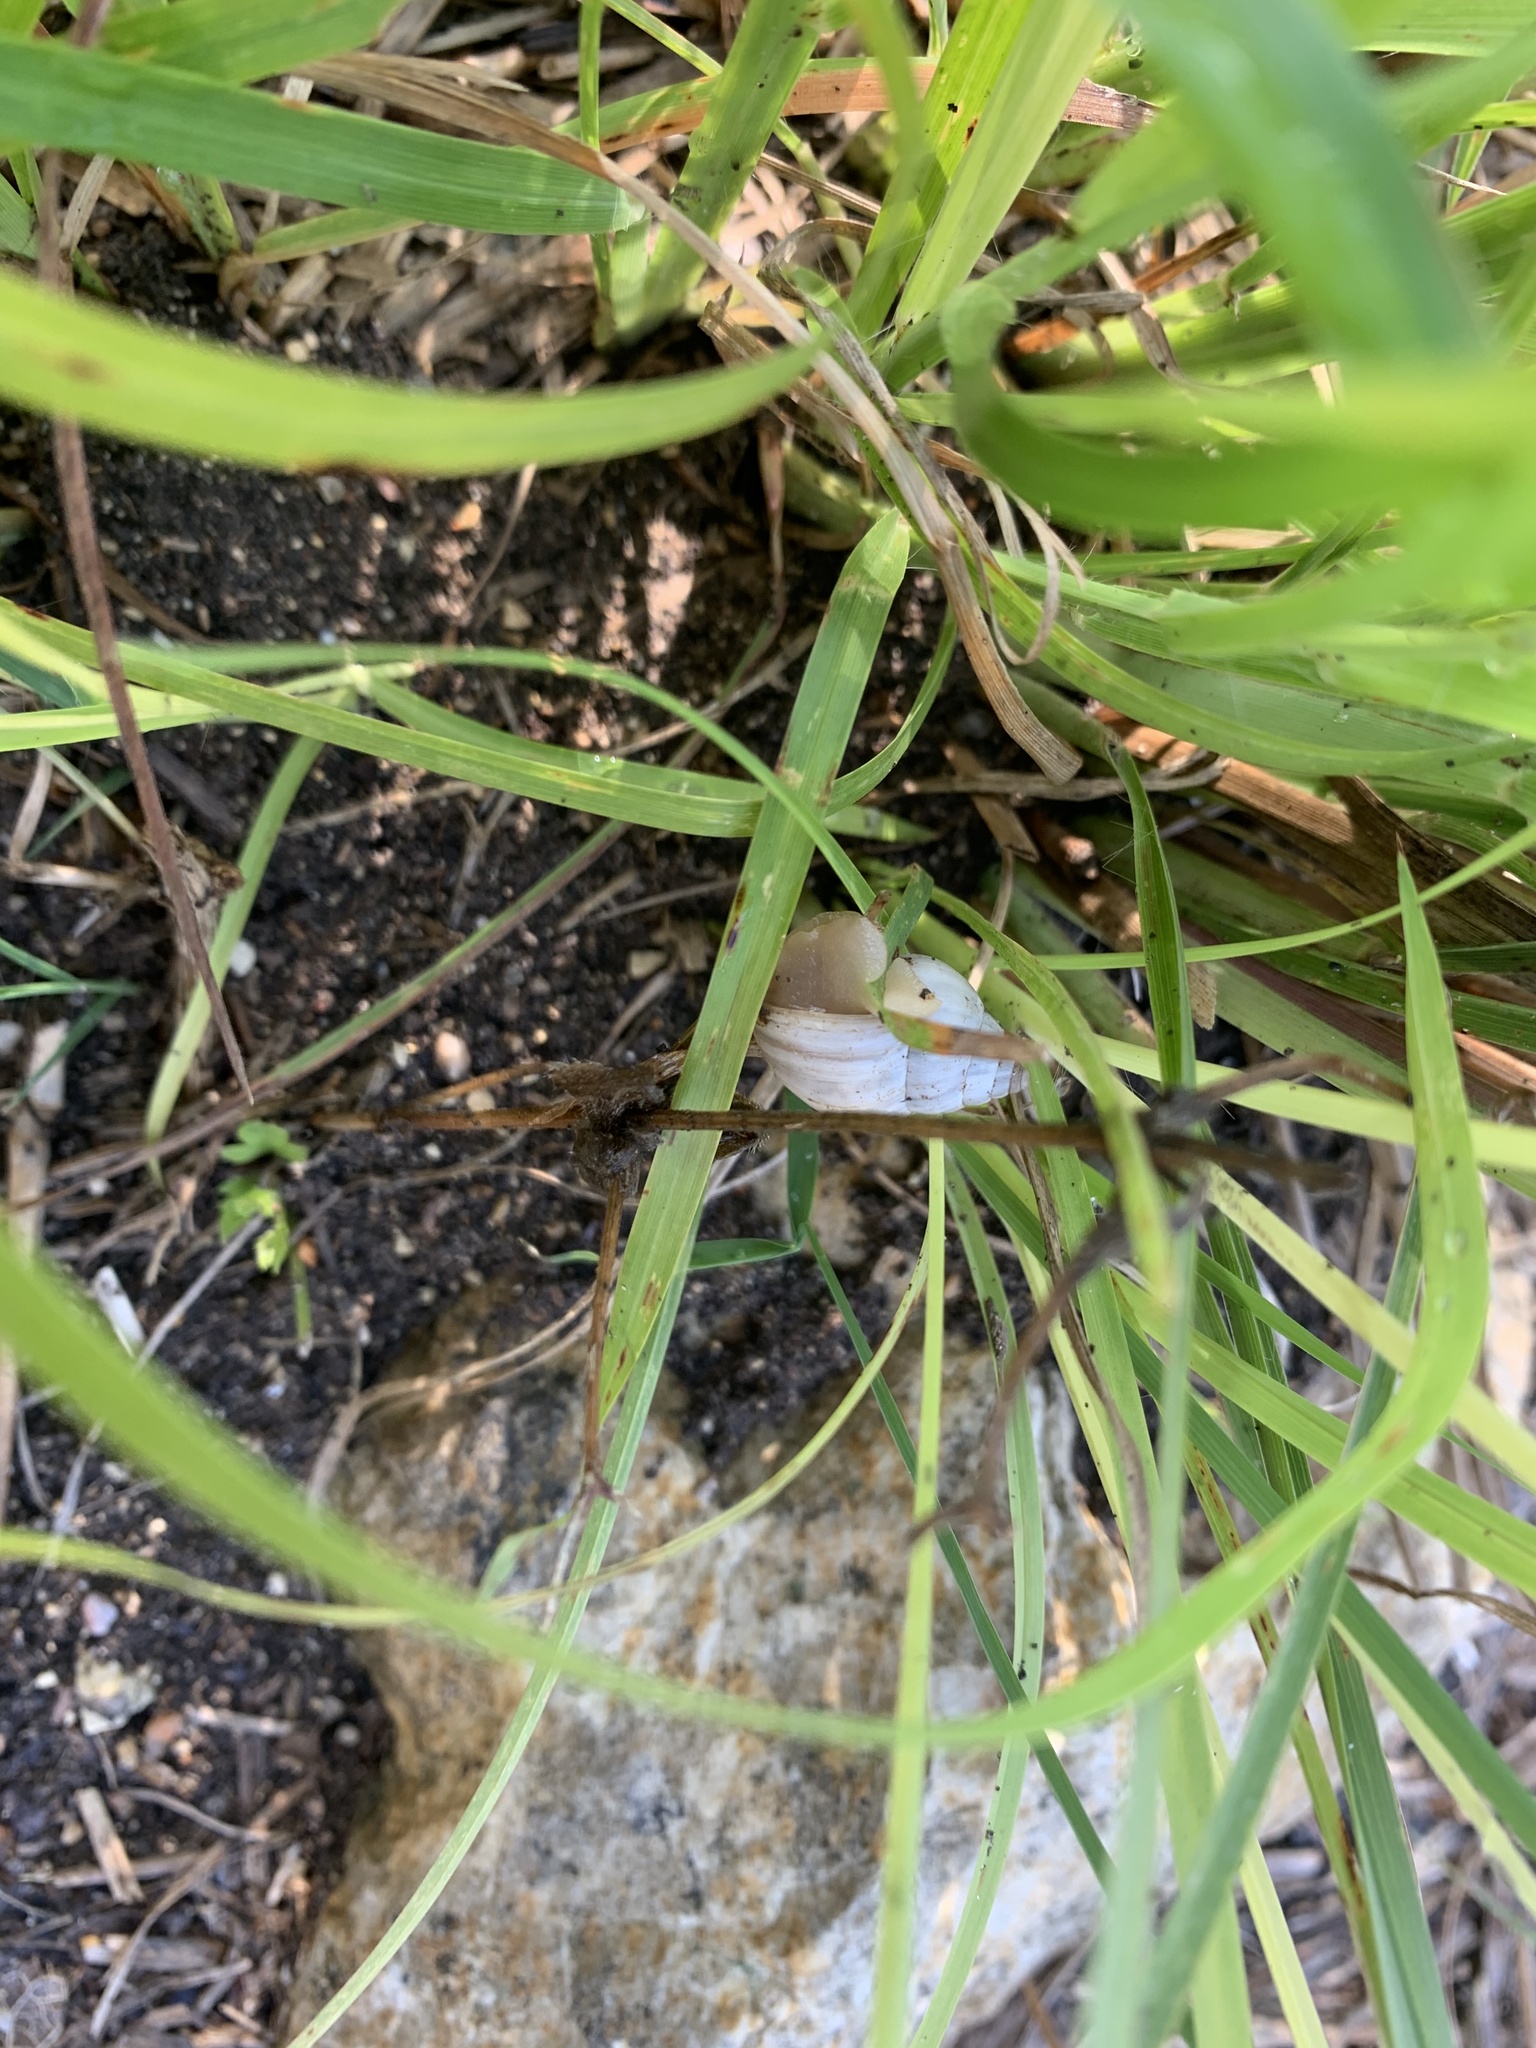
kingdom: Animalia
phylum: Mollusca
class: Gastropoda
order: Stylommatophora
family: Bulimulidae
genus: Rabdotus
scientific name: Rabdotus mooreanus
